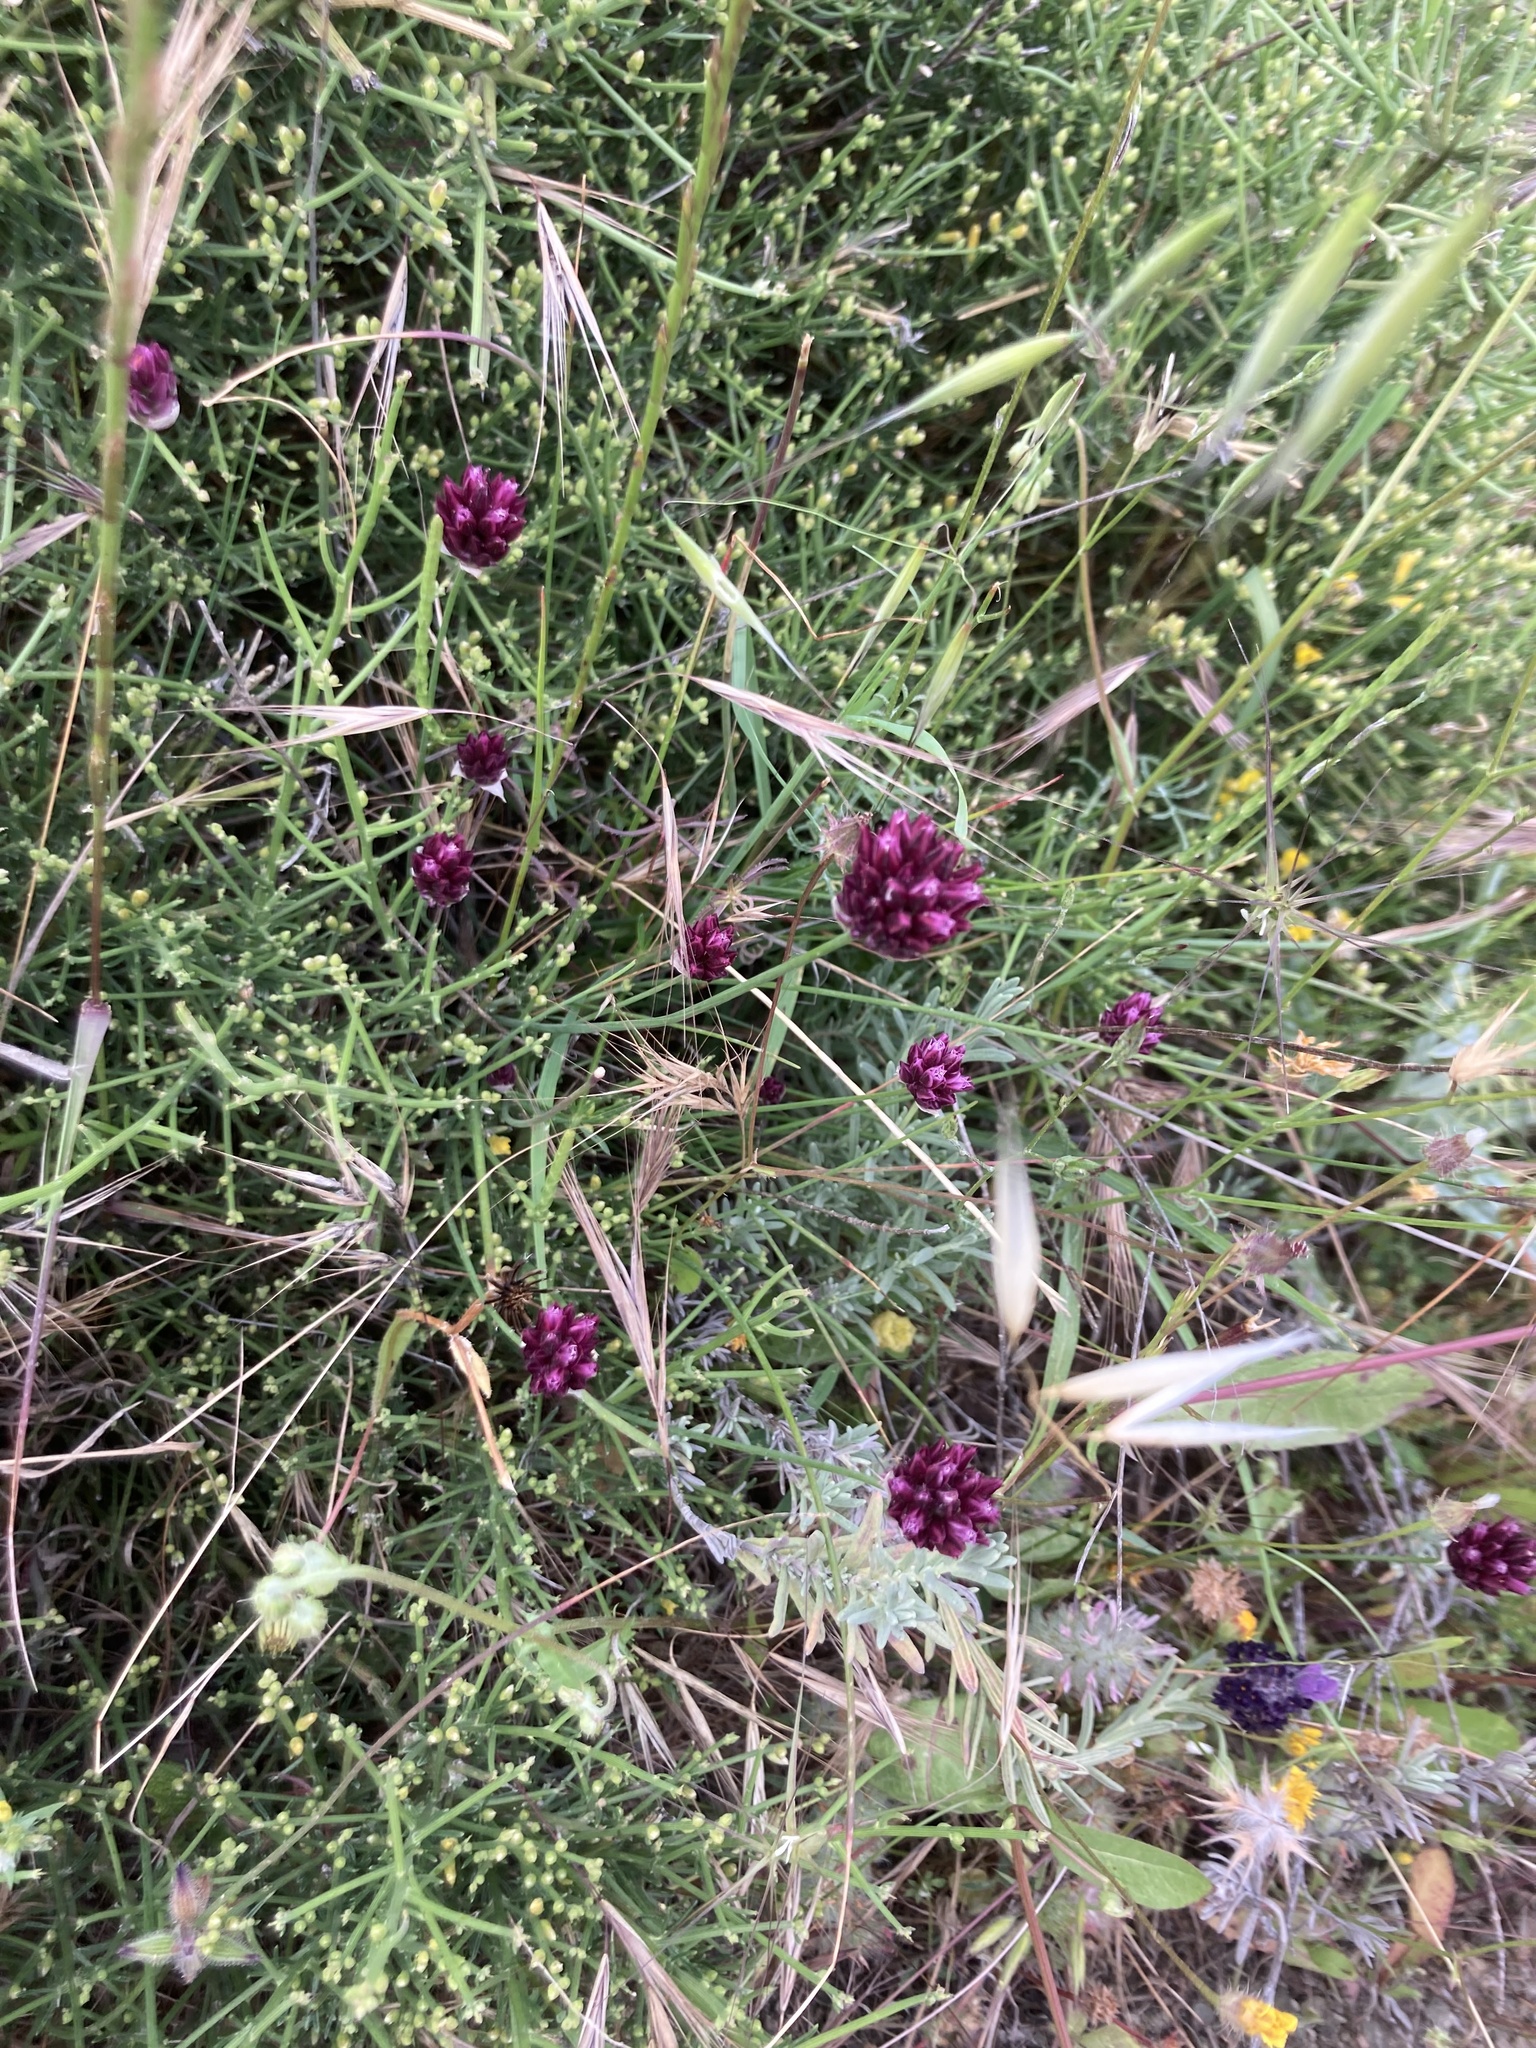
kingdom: Plantae
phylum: Tracheophyta
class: Liliopsida
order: Asparagales
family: Amaryllidaceae
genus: Allium
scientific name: Allium junceum
